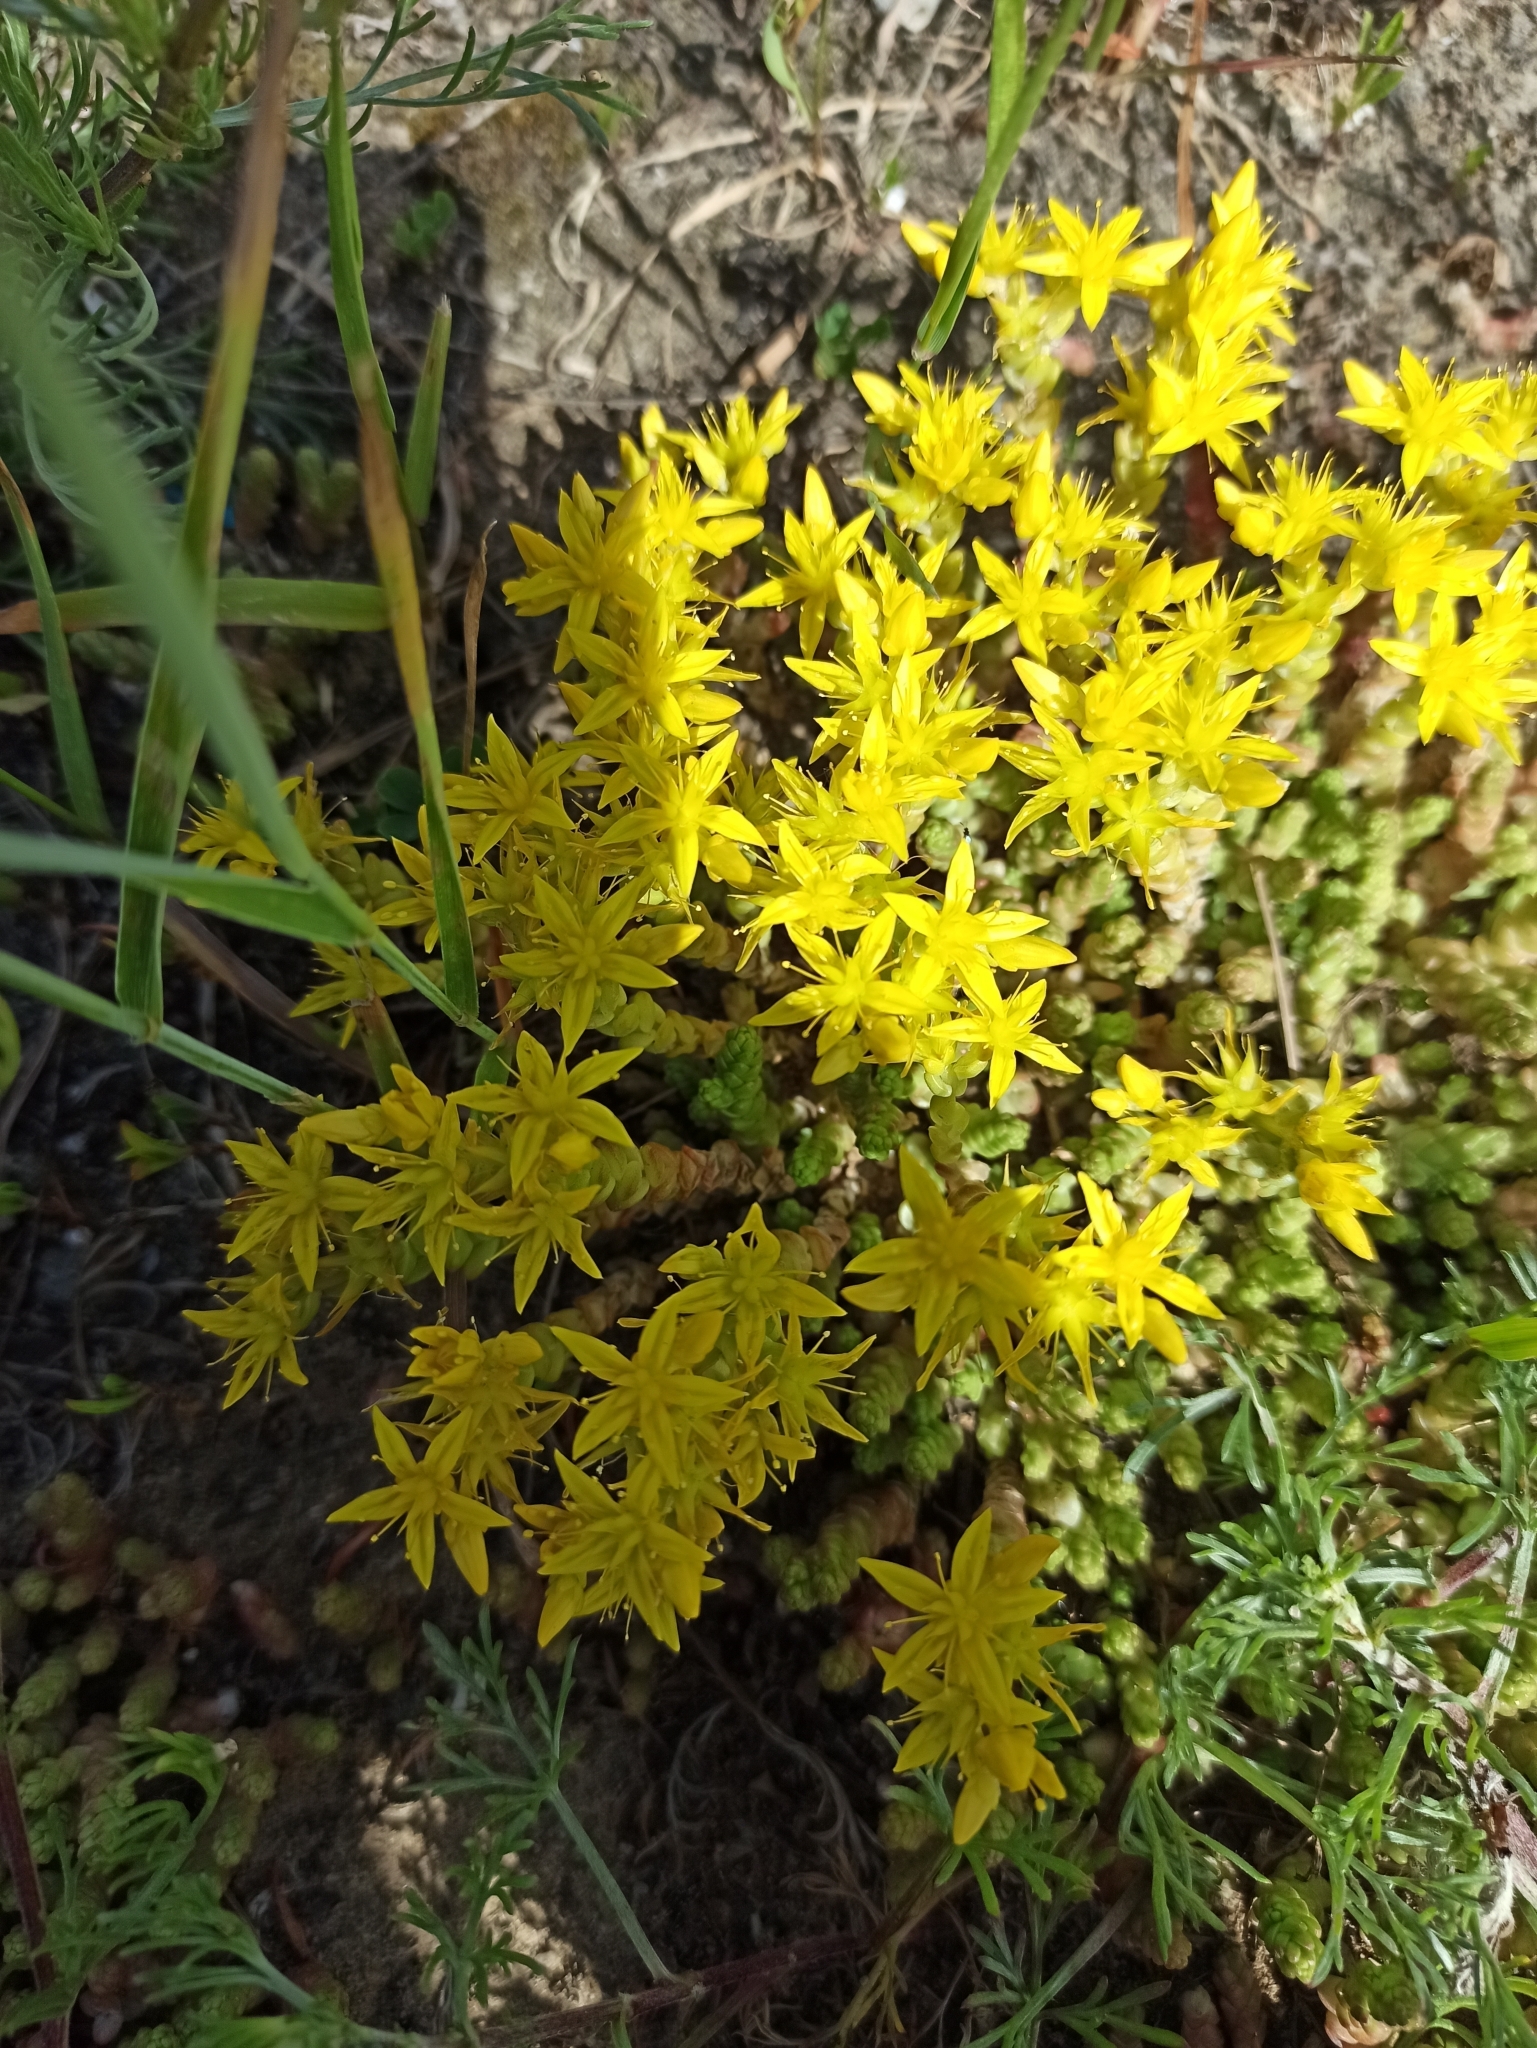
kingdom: Plantae
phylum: Tracheophyta
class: Magnoliopsida
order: Saxifragales
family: Crassulaceae
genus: Sedum
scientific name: Sedum acre
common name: Biting stonecrop
